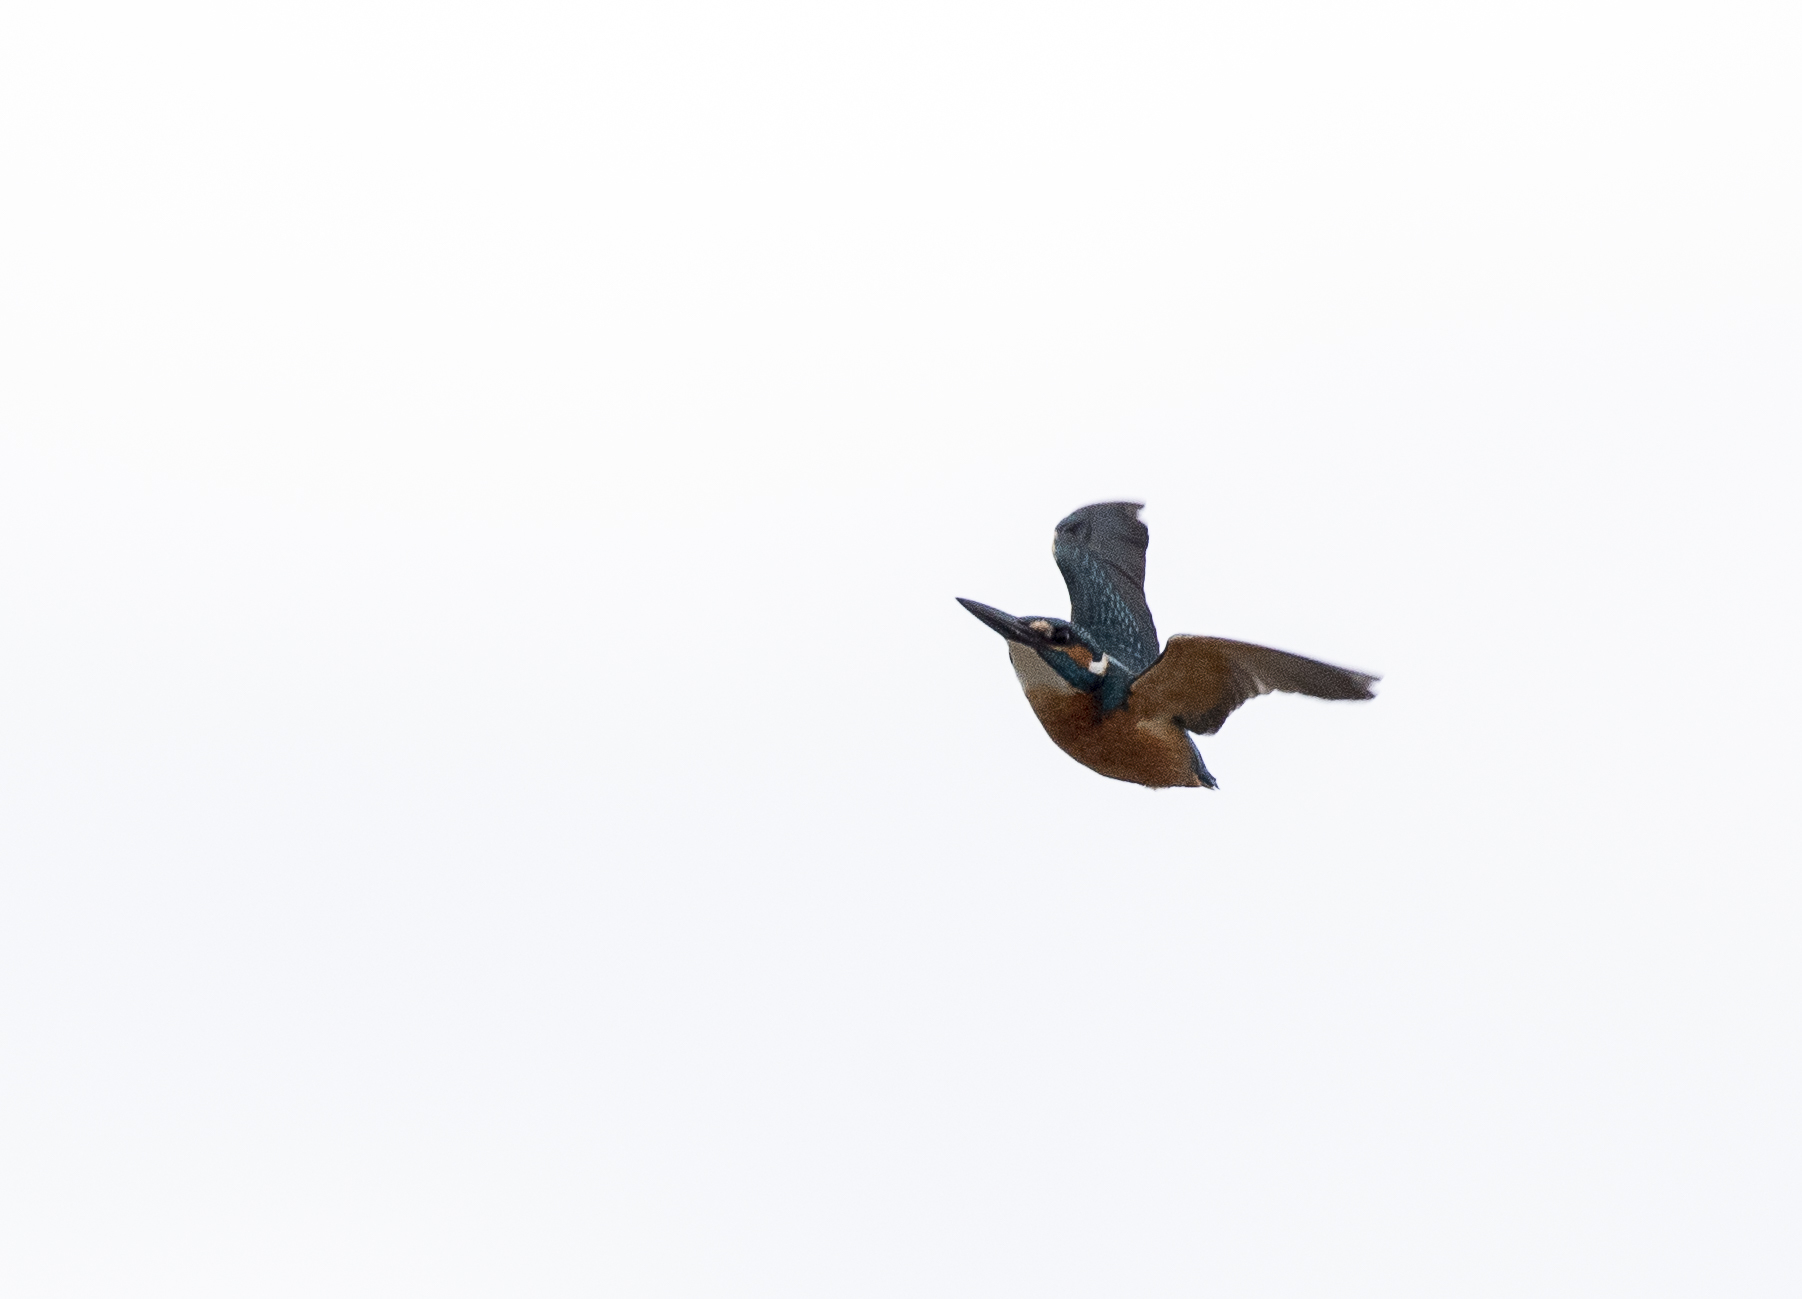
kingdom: Animalia
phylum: Chordata
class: Aves
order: Coraciiformes
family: Alcedinidae
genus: Alcedo
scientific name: Alcedo atthis
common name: Common kingfisher
